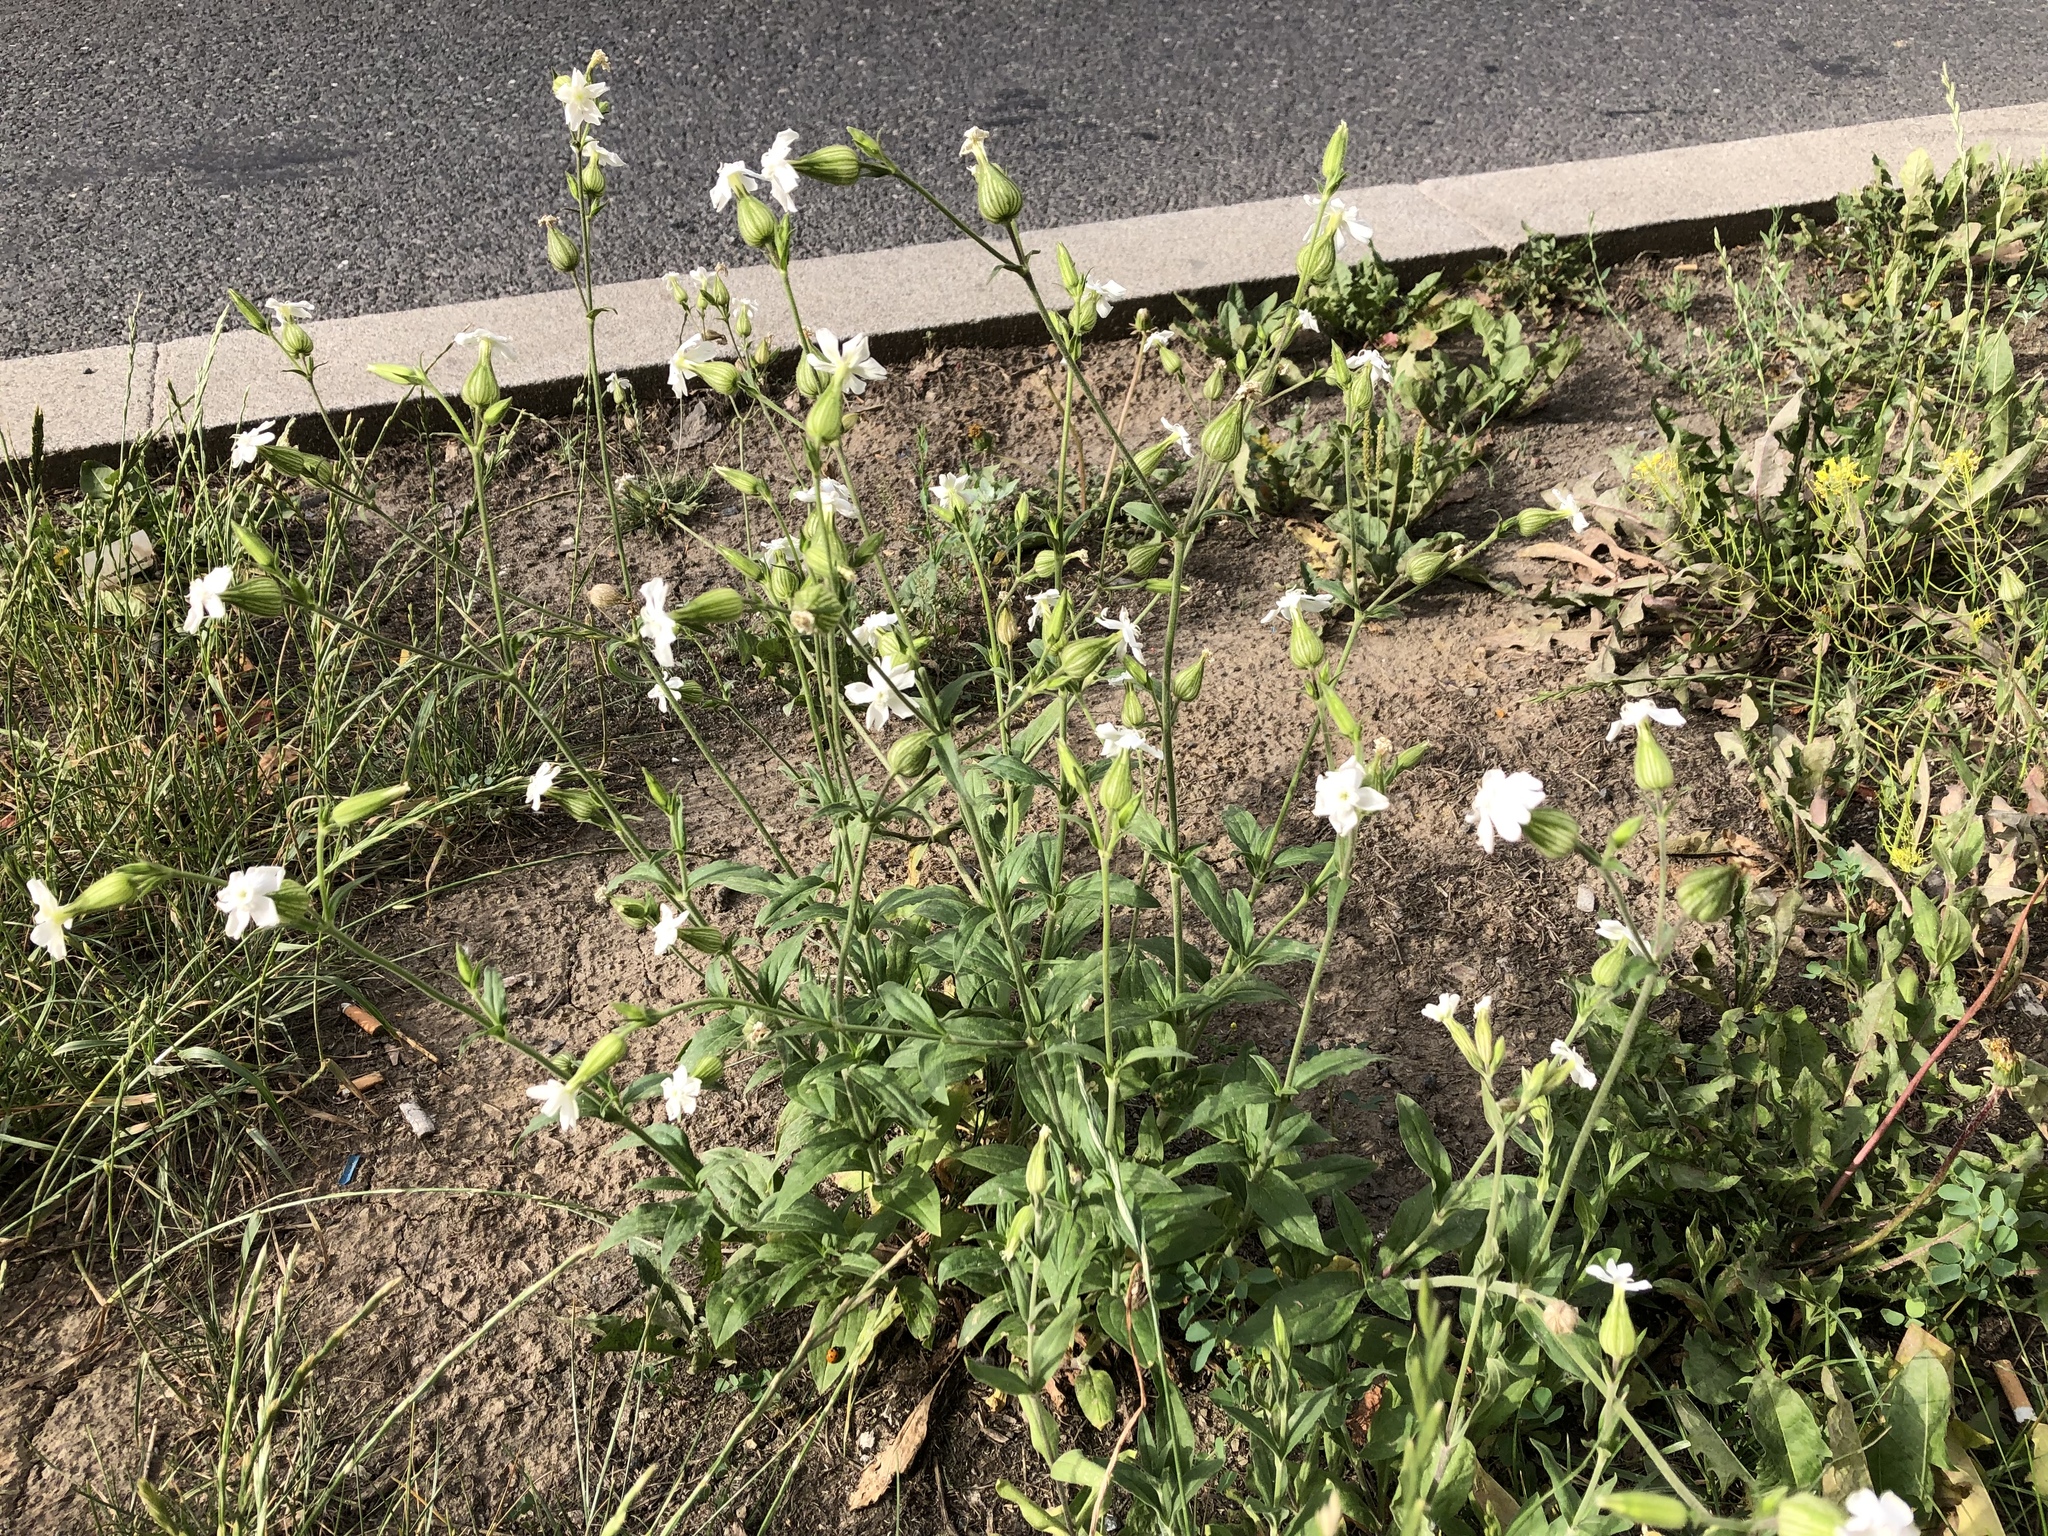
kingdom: Plantae
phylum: Tracheophyta
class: Magnoliopsida
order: Caryophyllales
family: Caryophyllaceae
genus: Silene
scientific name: Silene latifolia
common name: White campion
